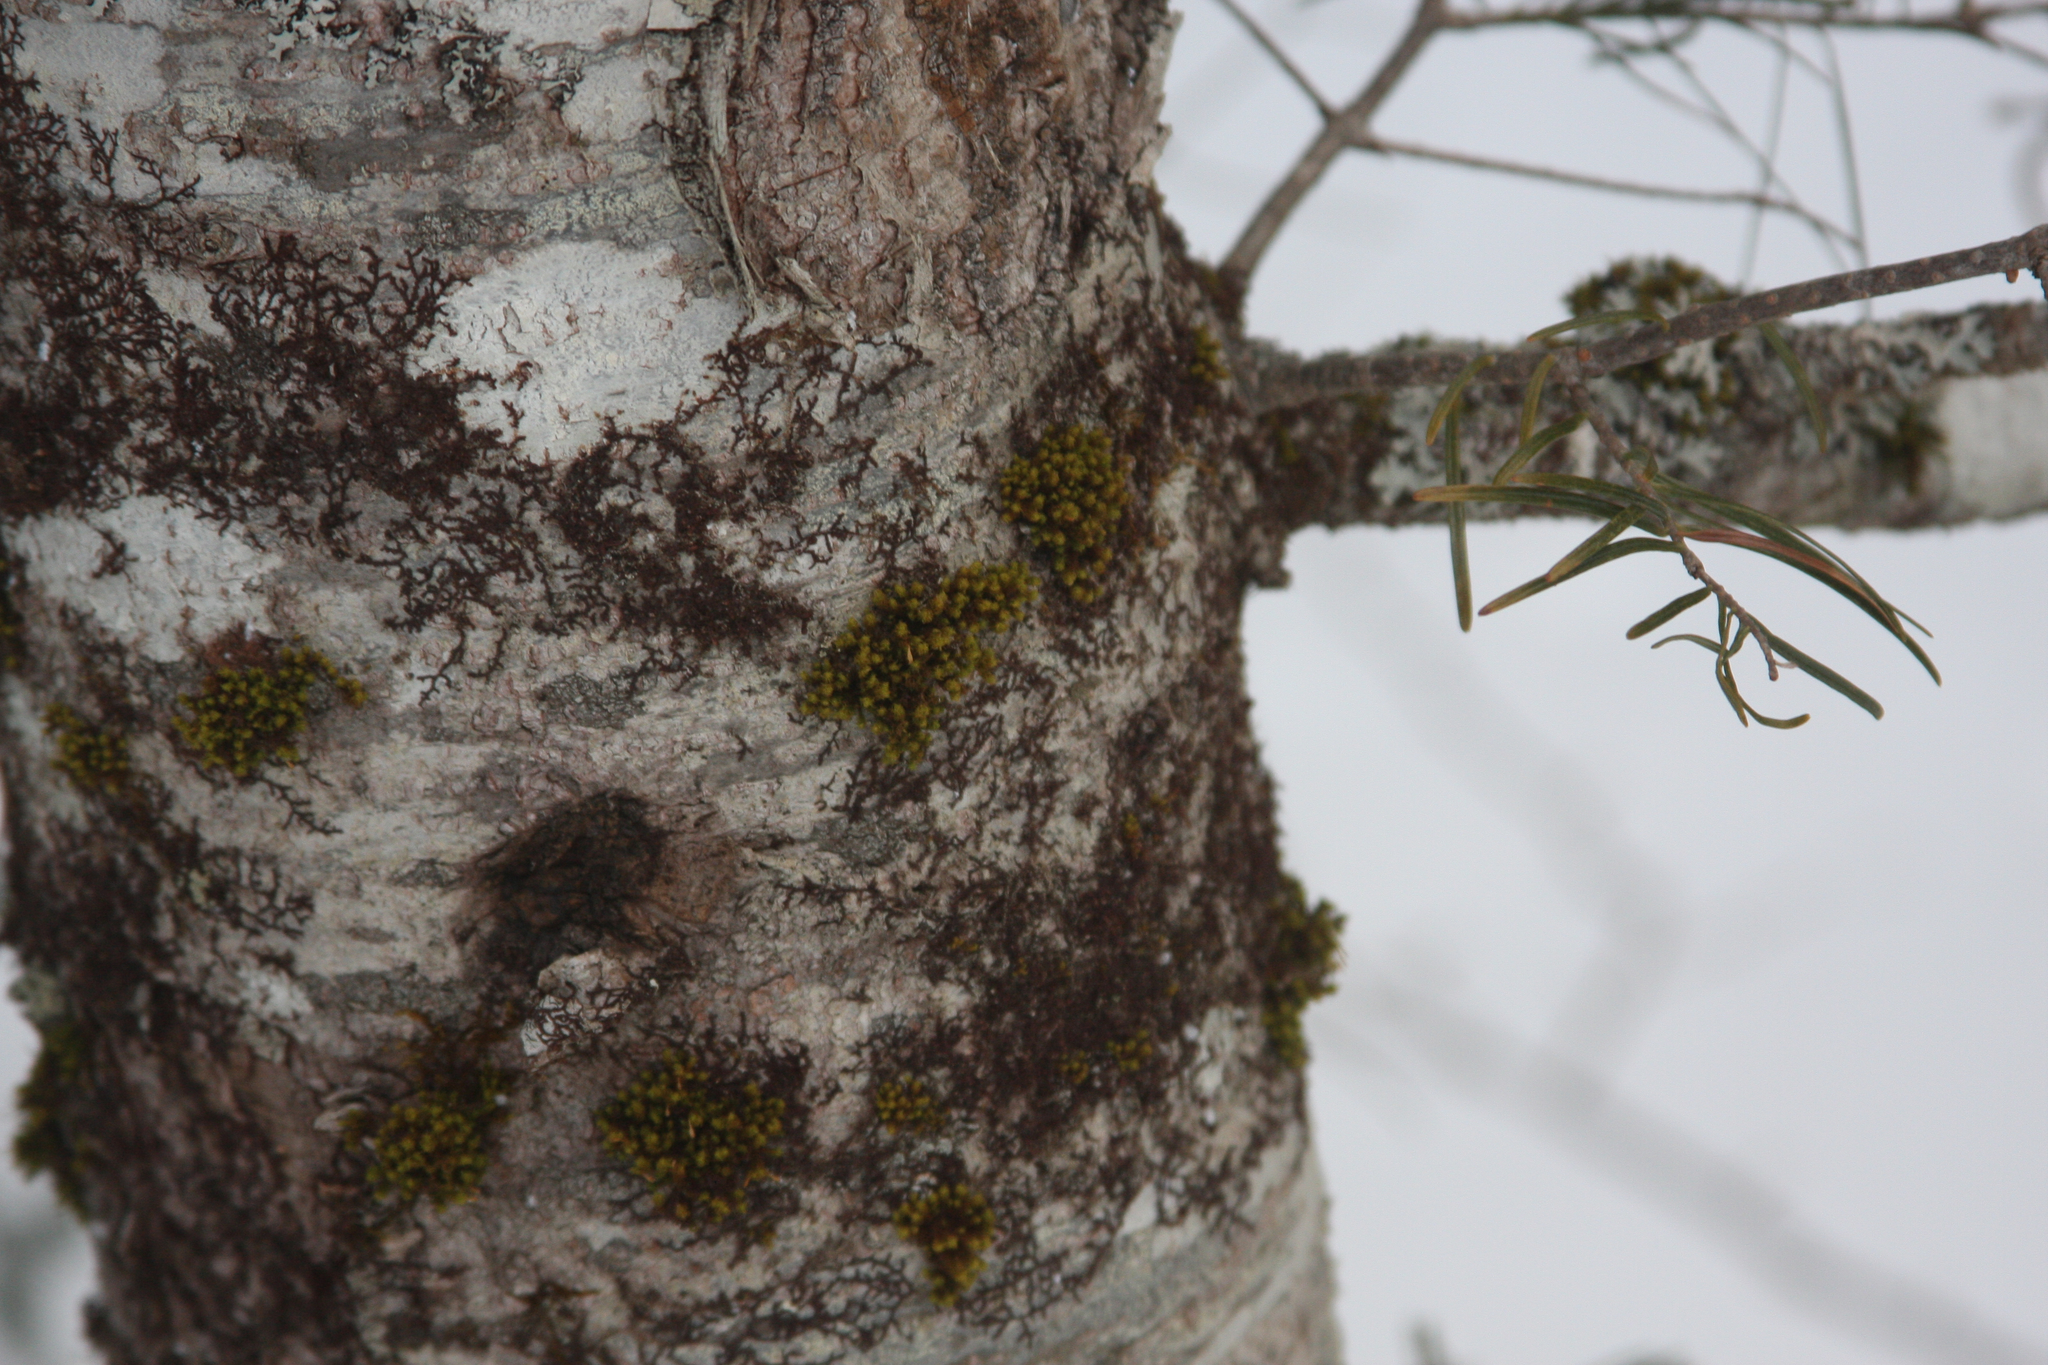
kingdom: Plantae
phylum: Bryophyta
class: Bryopsida
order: Orthotrichales
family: Orthotrichaceae
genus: Ulota
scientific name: Ulota crispa
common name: Crisped pincushion moss
